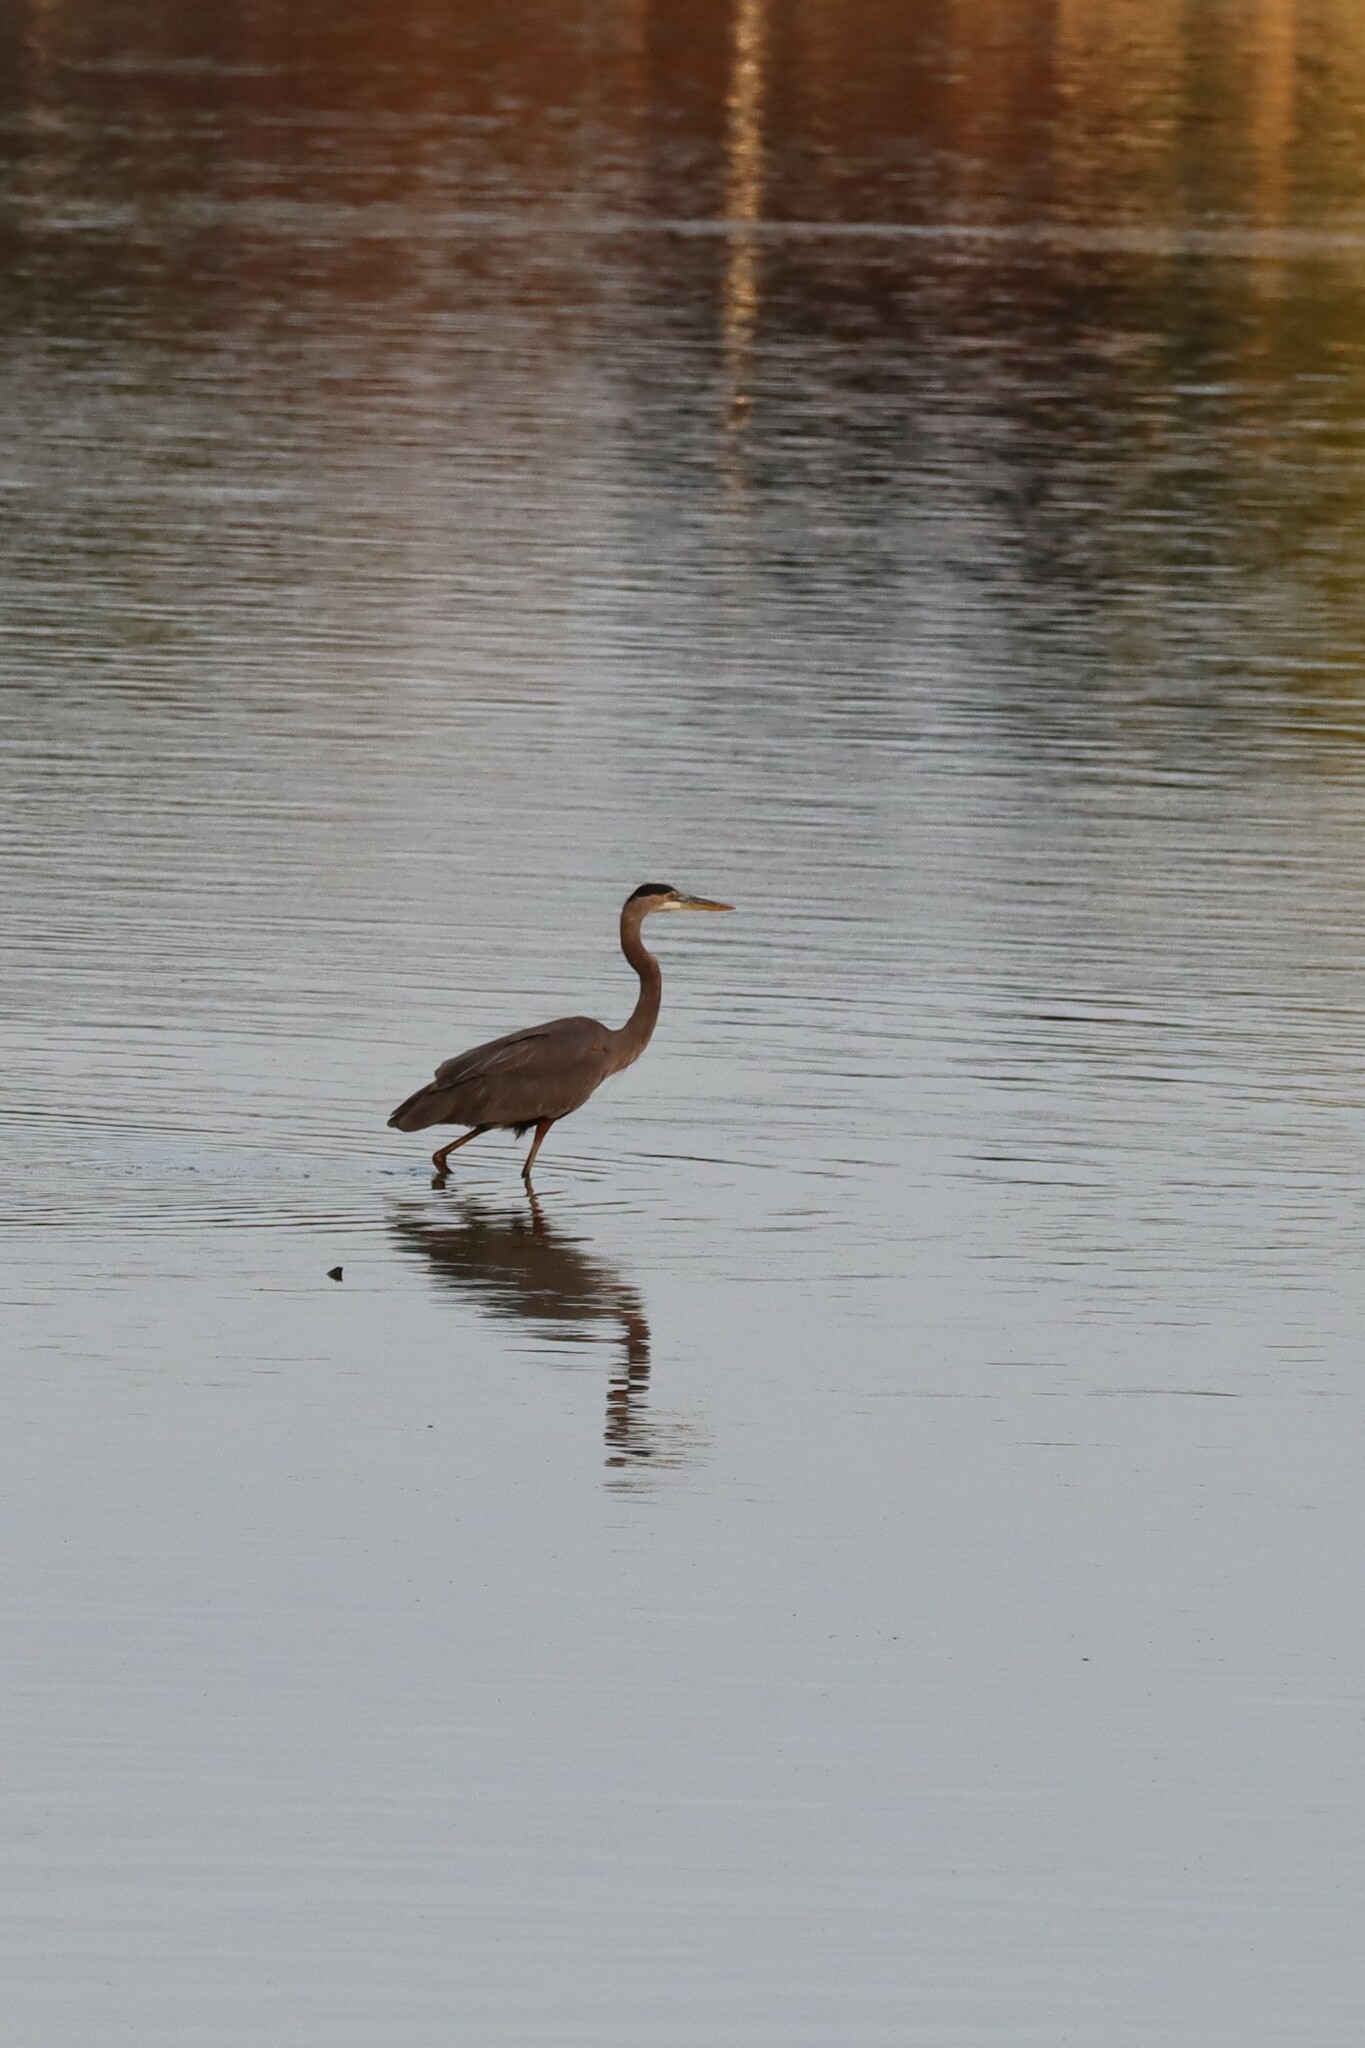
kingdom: Animalia
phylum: Chordata
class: Aves
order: Pelecaniformes
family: Ardeidae
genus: Ardea
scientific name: Ardea herodias
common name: Great blue heron
